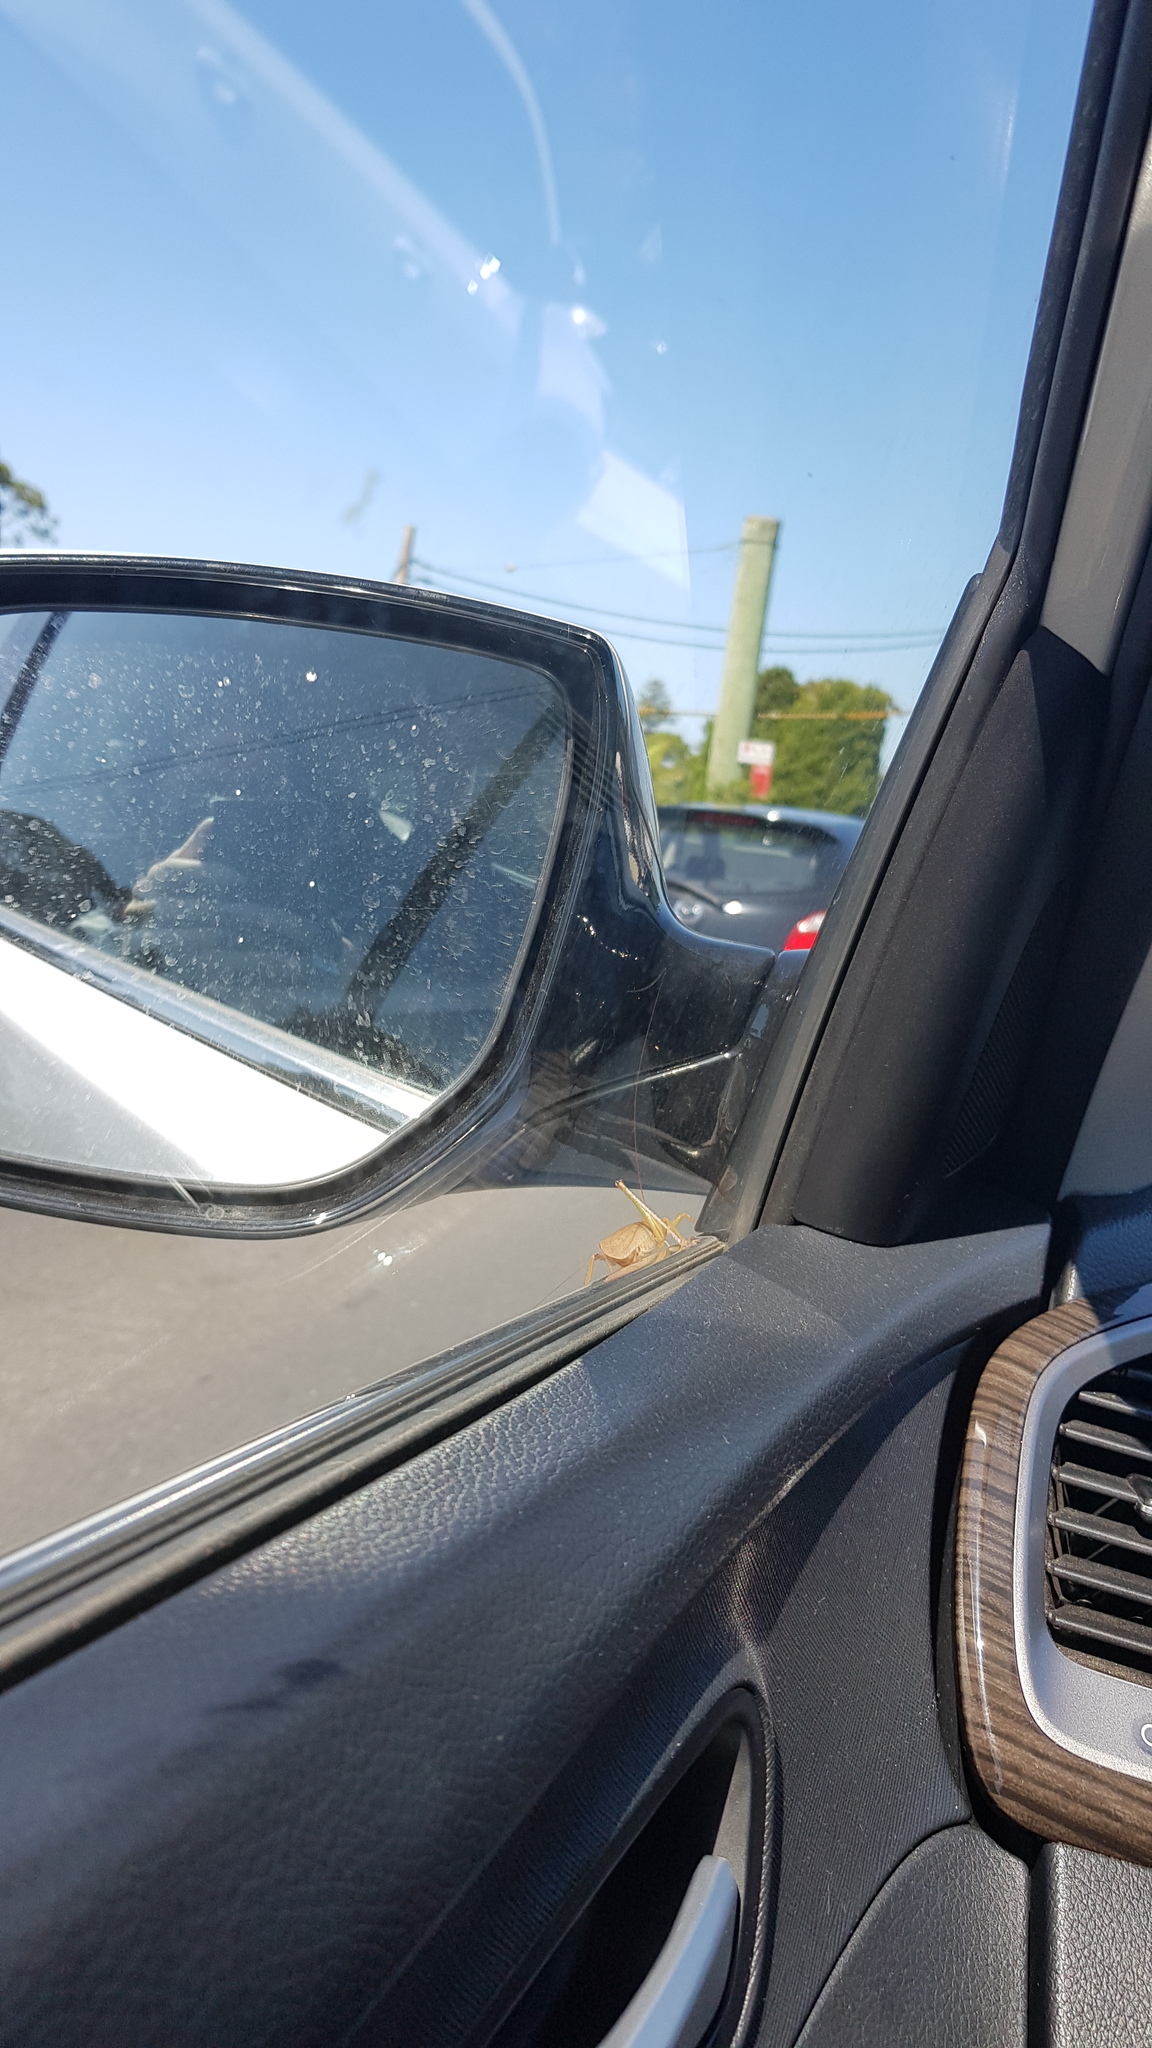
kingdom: Animalia
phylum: Arthropoda
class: Insecta
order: Orthoptera
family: Tettigoniidae
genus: Austrosalomona
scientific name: Austrosalomona falcata
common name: Olive-green coastal katydid
